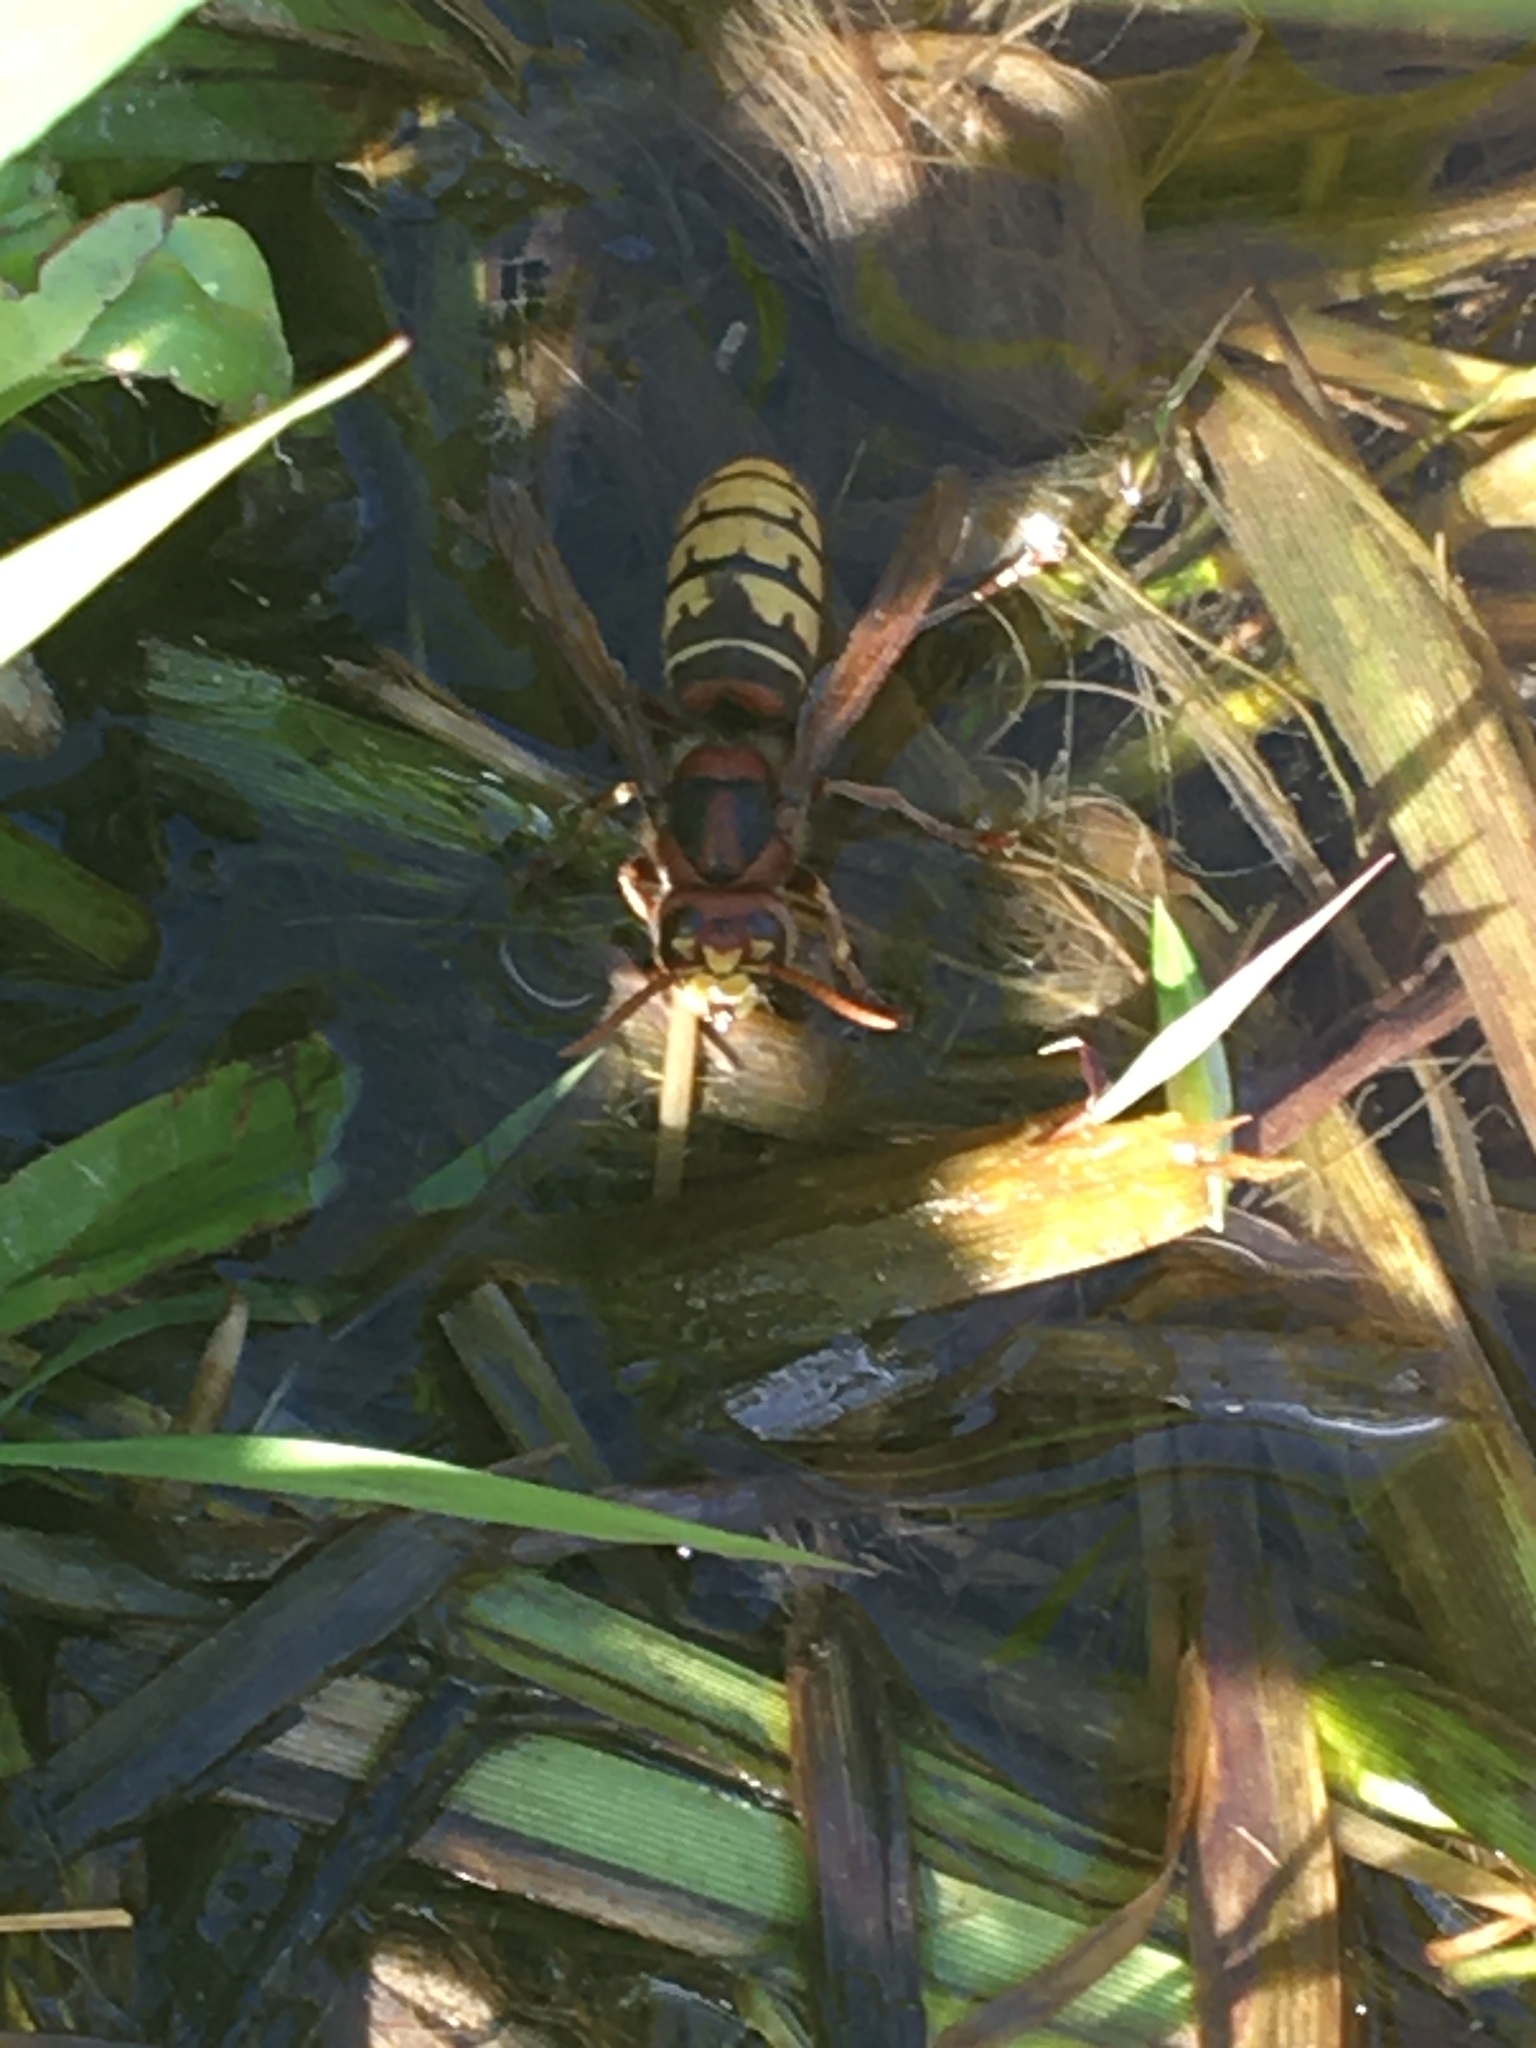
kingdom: Animalia
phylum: Arthropoda
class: Insecta
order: Hymenoptera
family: Vespidae
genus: Vespa
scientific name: Vespa crabro
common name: Hornet
